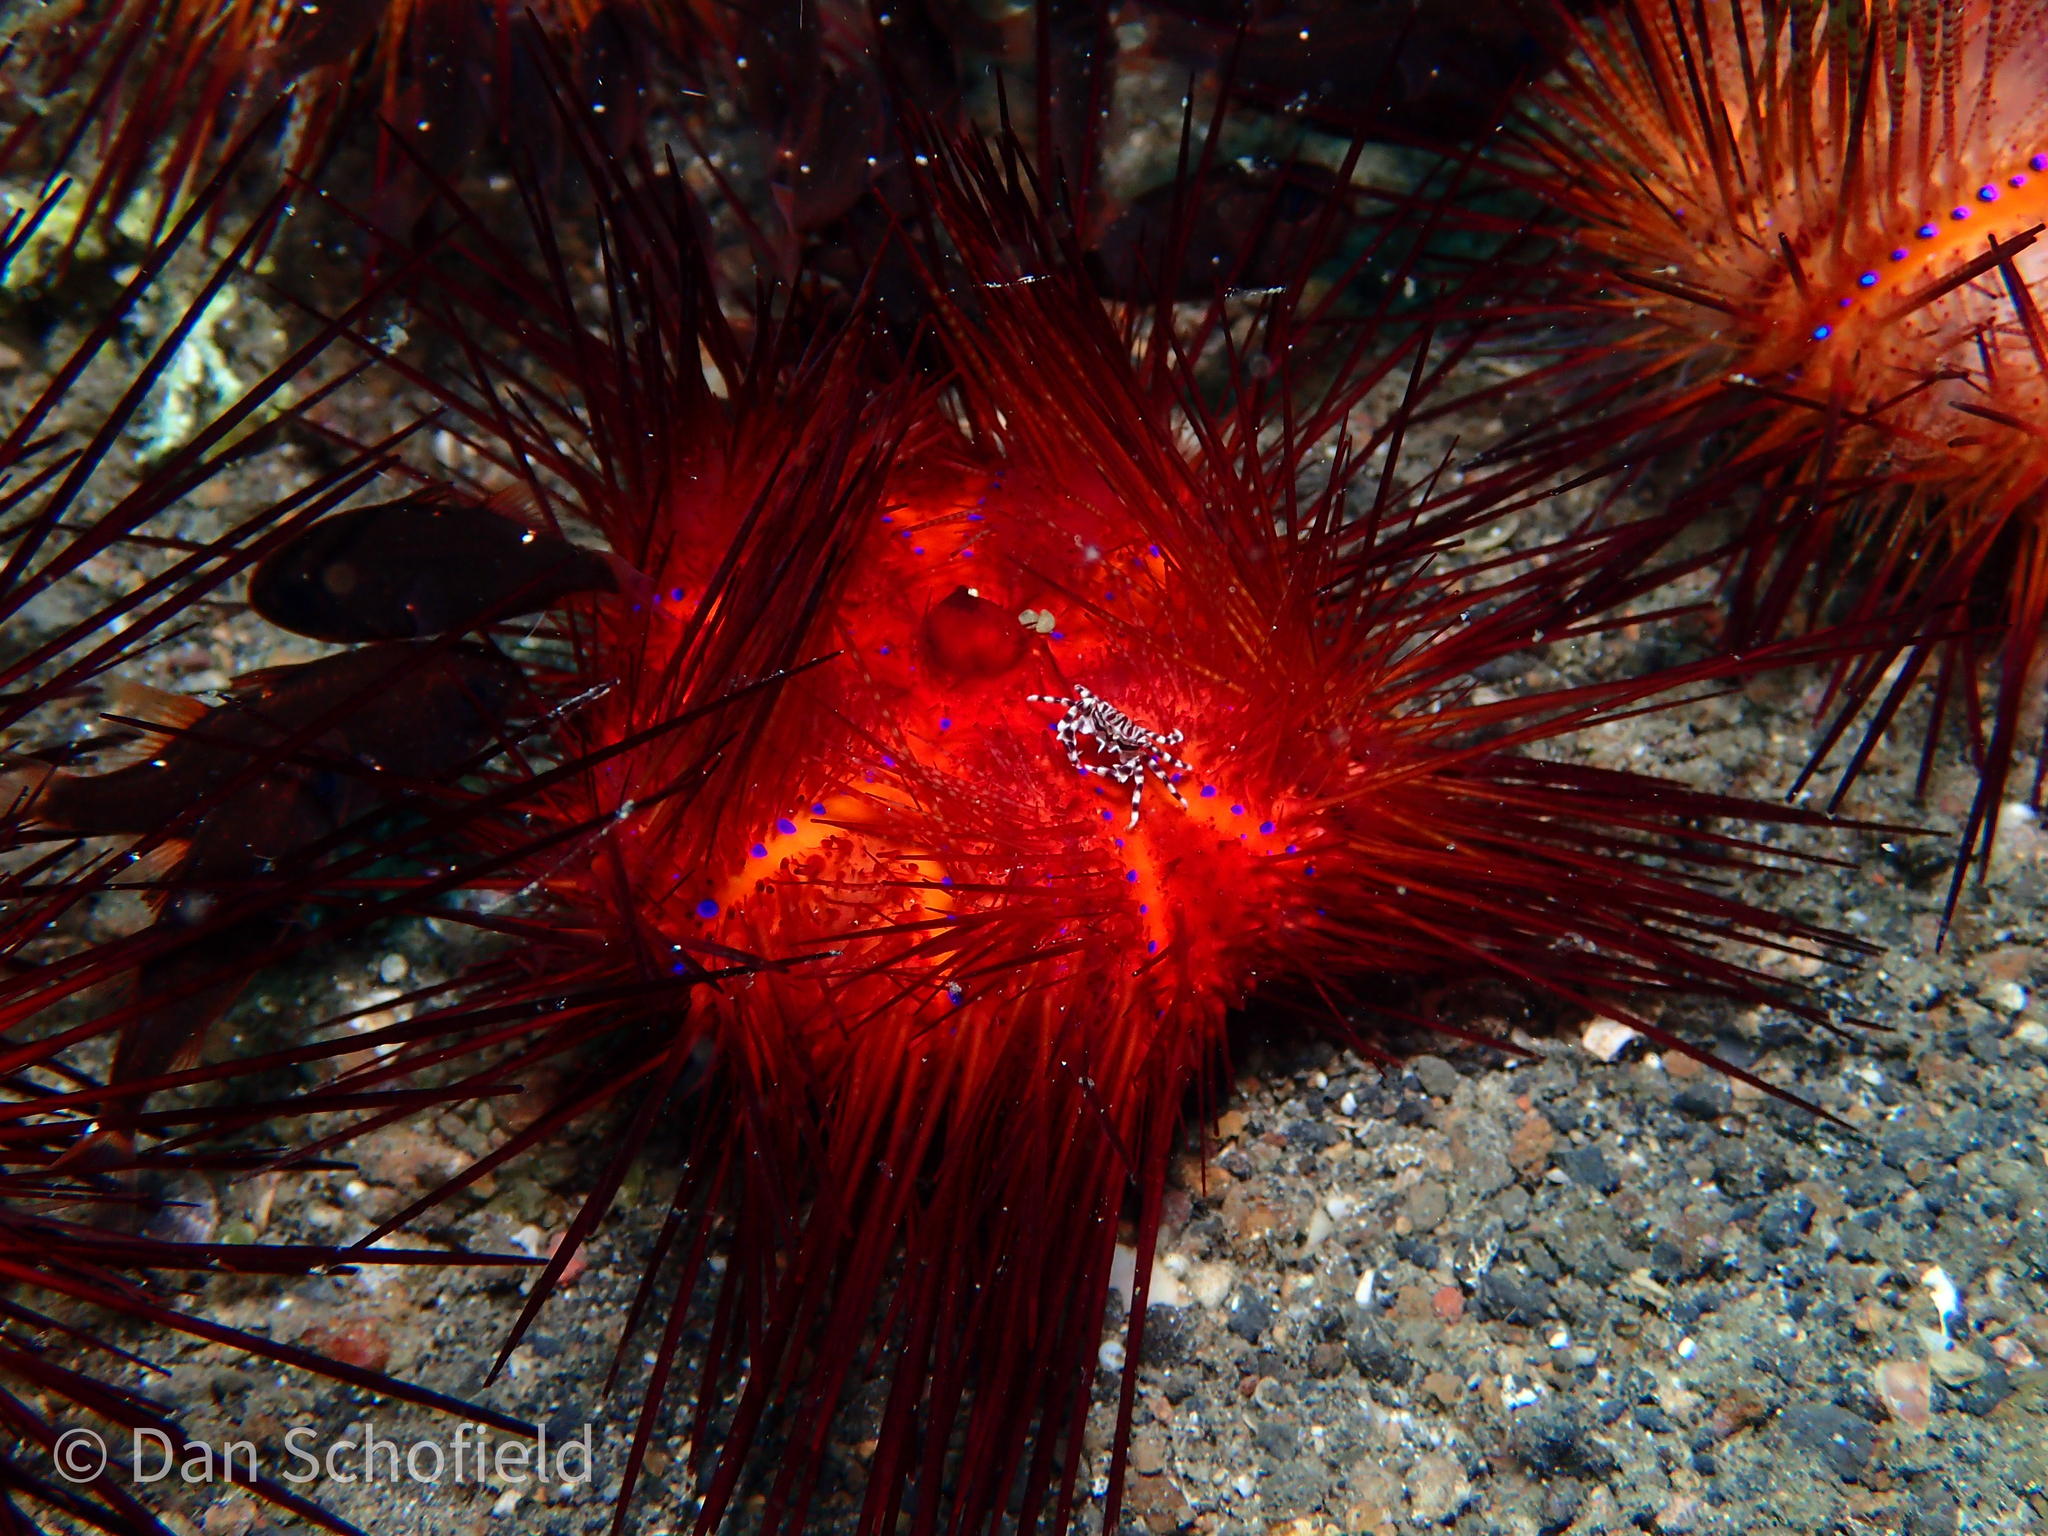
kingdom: Animalia
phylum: Echinodermata
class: Echinoidea
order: Diadematoida
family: Diadematidae
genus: Astropyga
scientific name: Astropyga radiata
